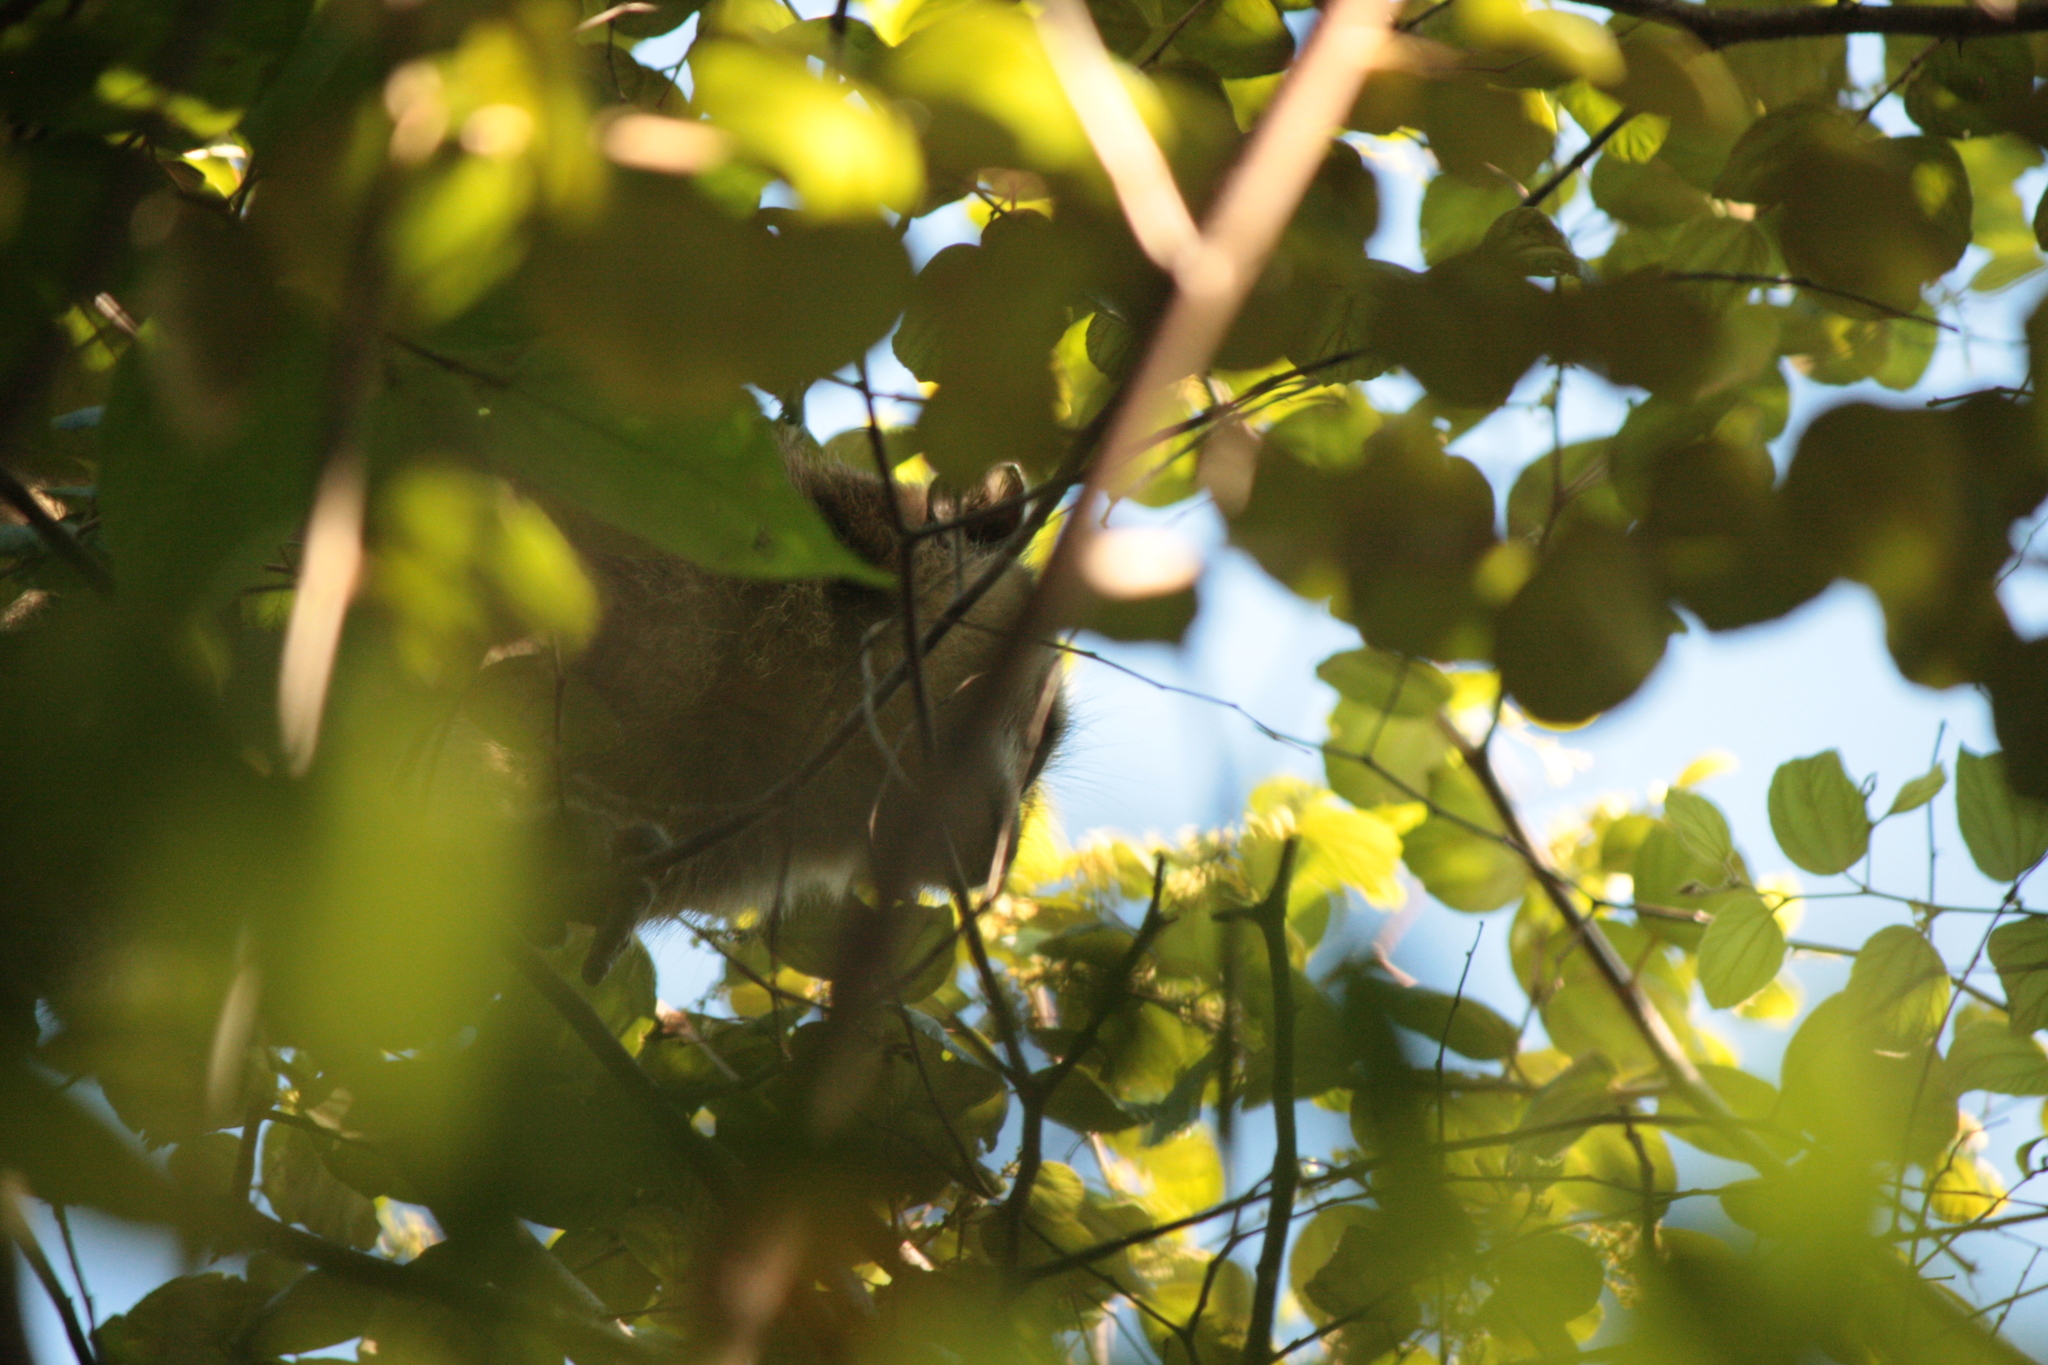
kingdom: Animalia
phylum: Chordata
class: Mammalia
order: Primates
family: Cercopithecidae
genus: Macaca
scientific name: Macaca fascicularis
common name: Crab-eating macaque
